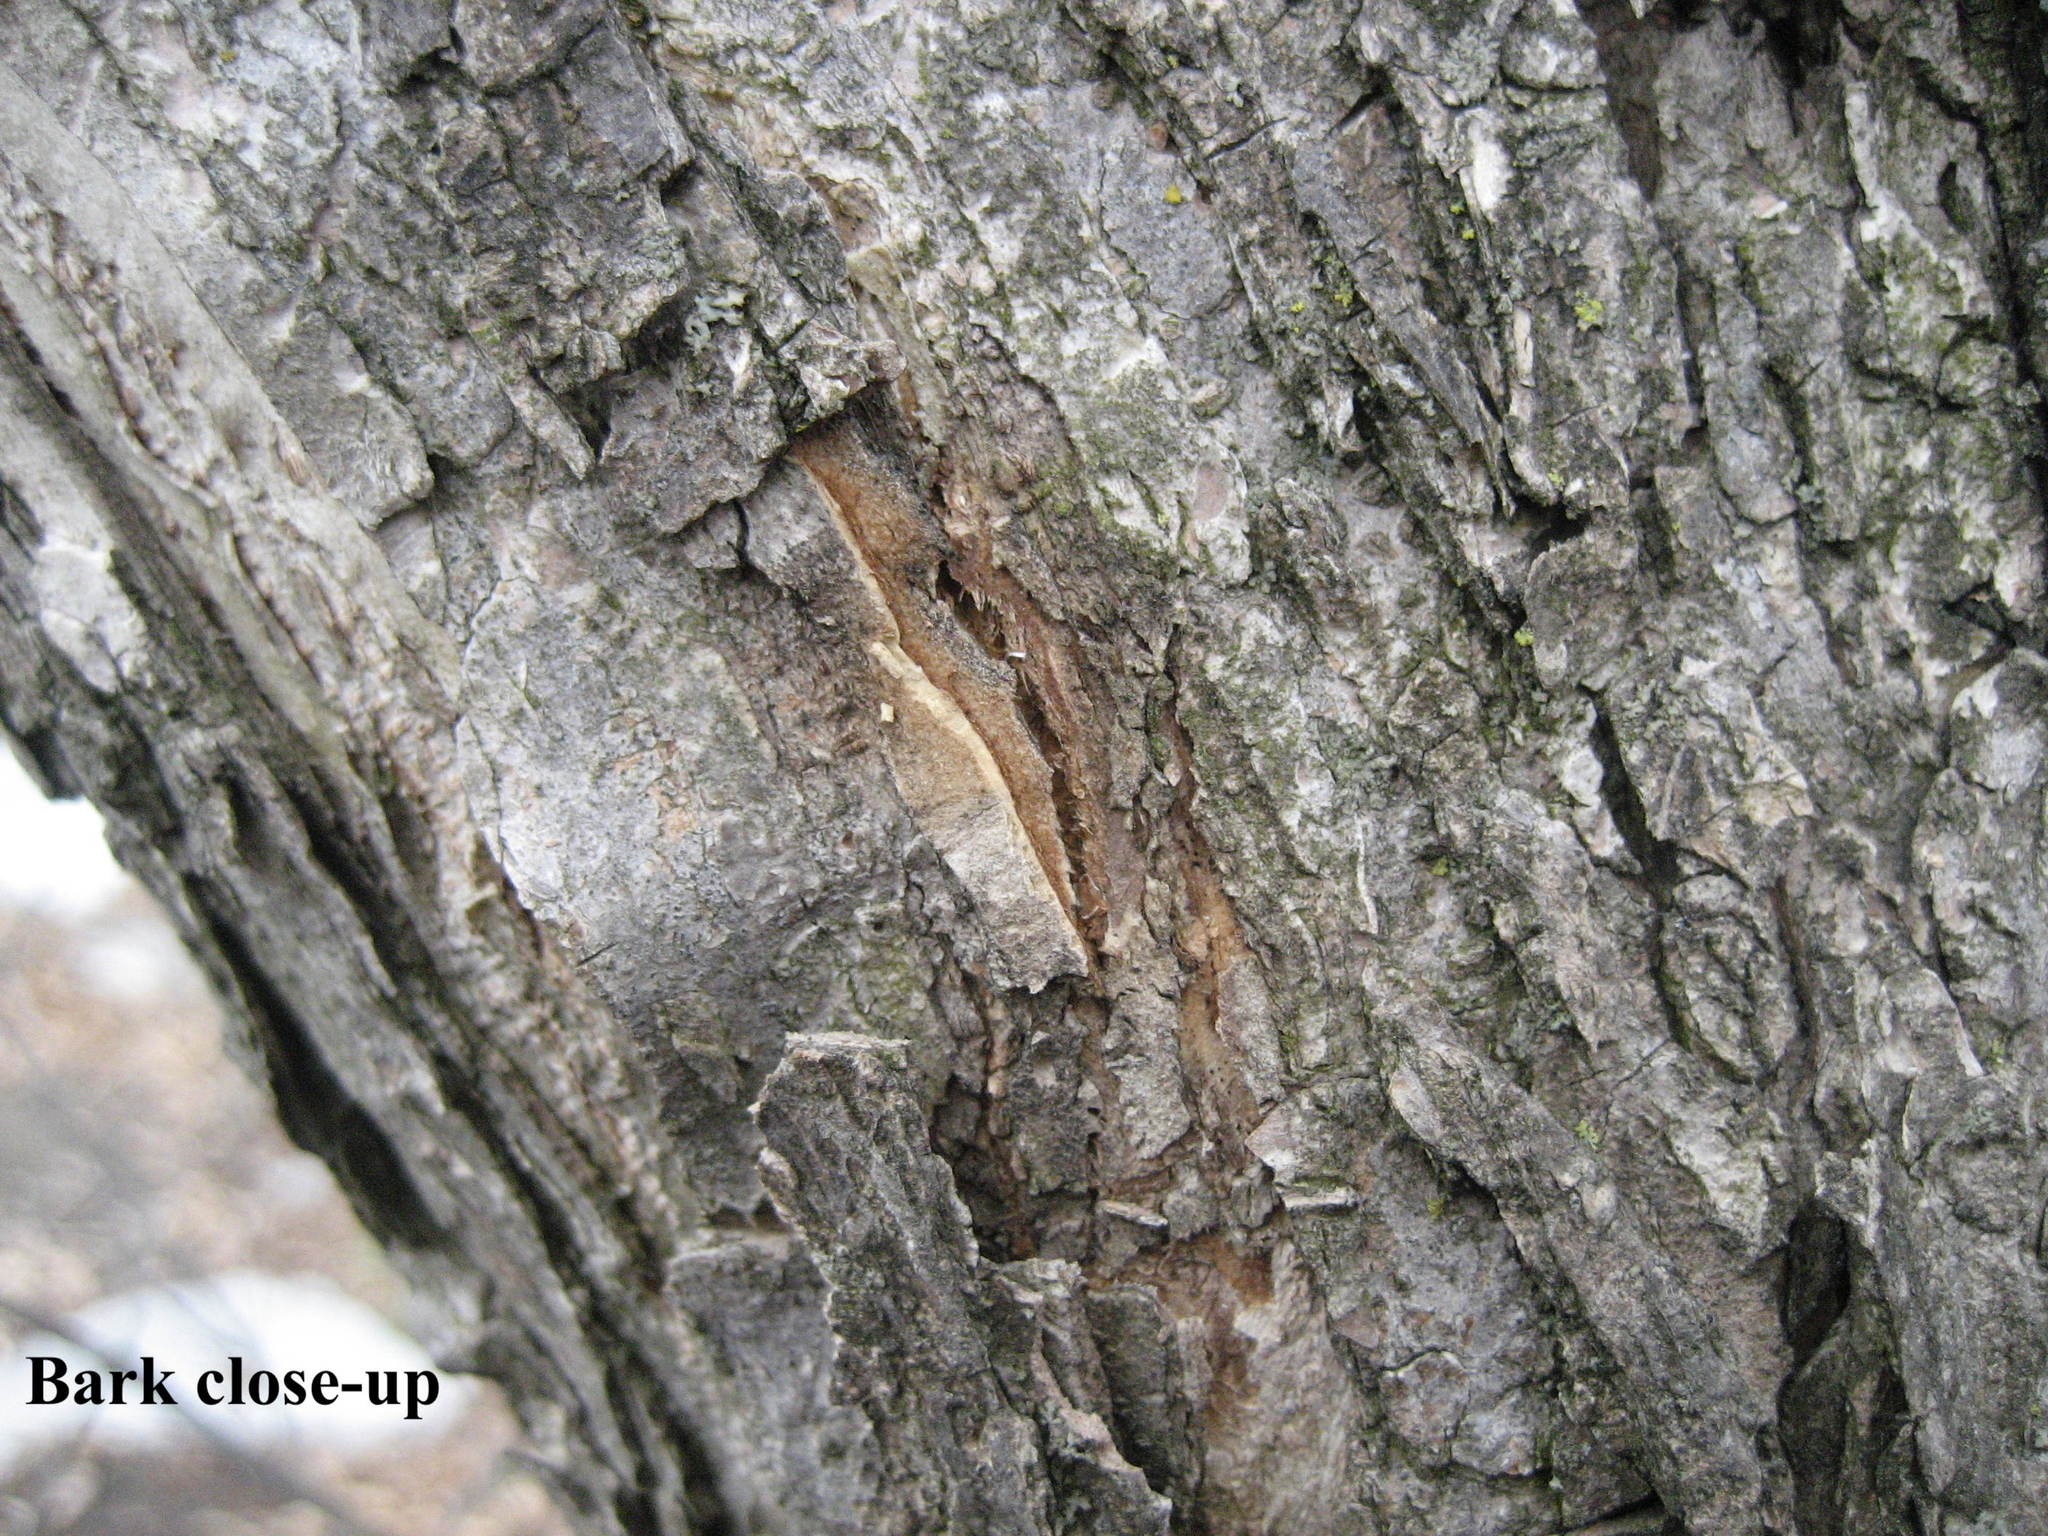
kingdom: Plantae
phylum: Tracheophyta
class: Magnoliopsida
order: Rosales
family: Ulmaceae
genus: Ulmus
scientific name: Ulmus americana
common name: American elm
